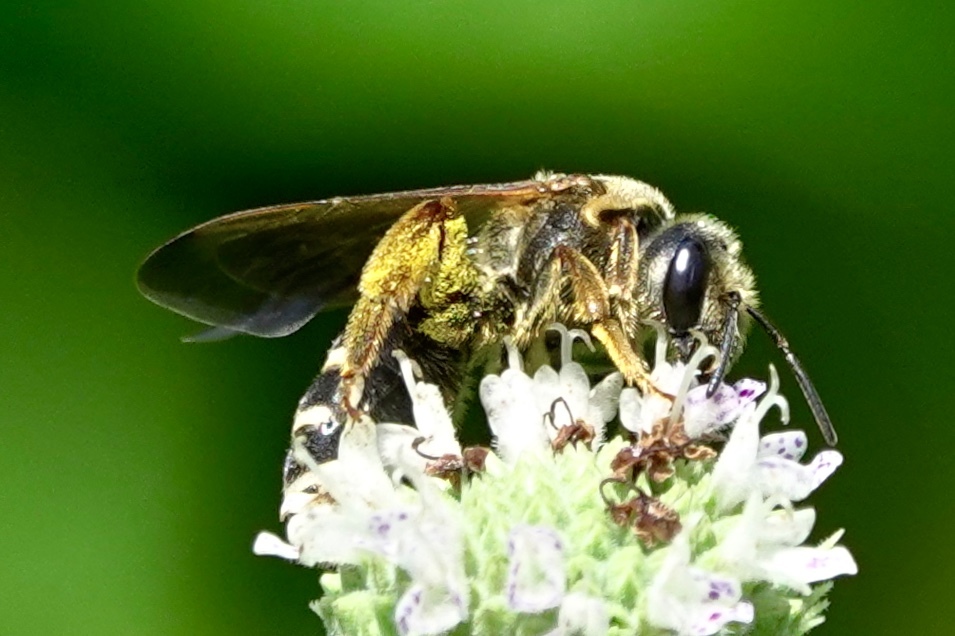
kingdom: Animalia
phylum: Arthropoda
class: Insecta
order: Hymenoptera
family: Halictidae
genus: Halictus
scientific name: Halictus parallelus
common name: Parallel-striped sweat bee
